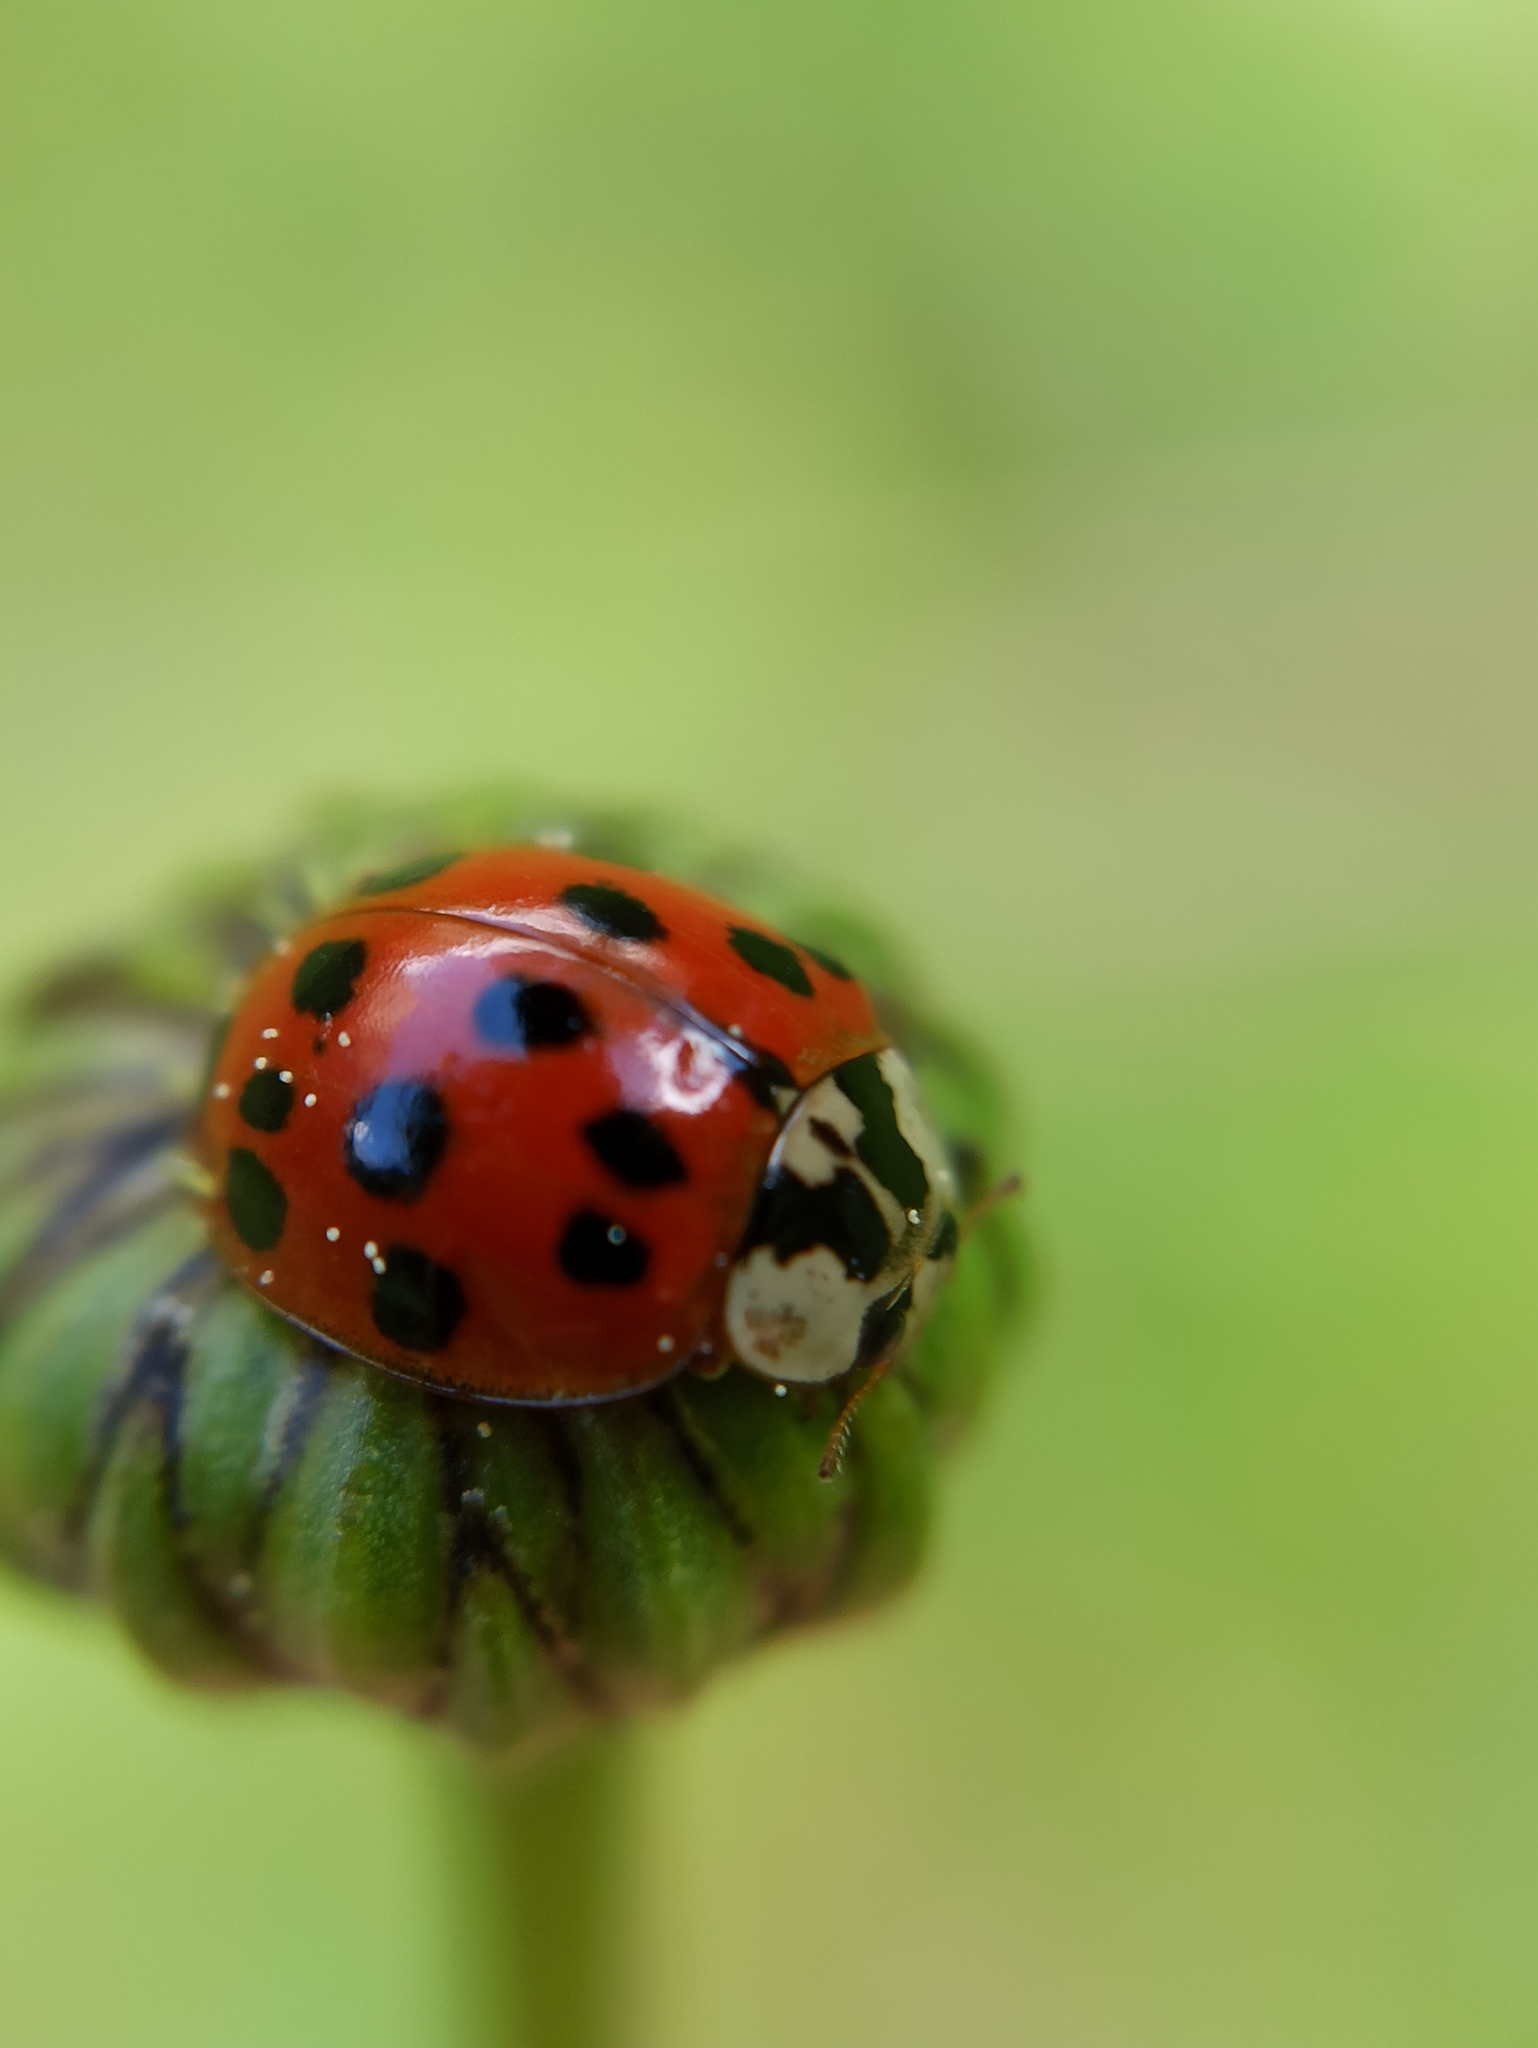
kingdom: Animalia
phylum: Arthropoda
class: Insecta
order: Coleoptera
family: Coccinellidae
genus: Harmonia
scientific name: Harmonia axyridis
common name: Harlequin ladybird
